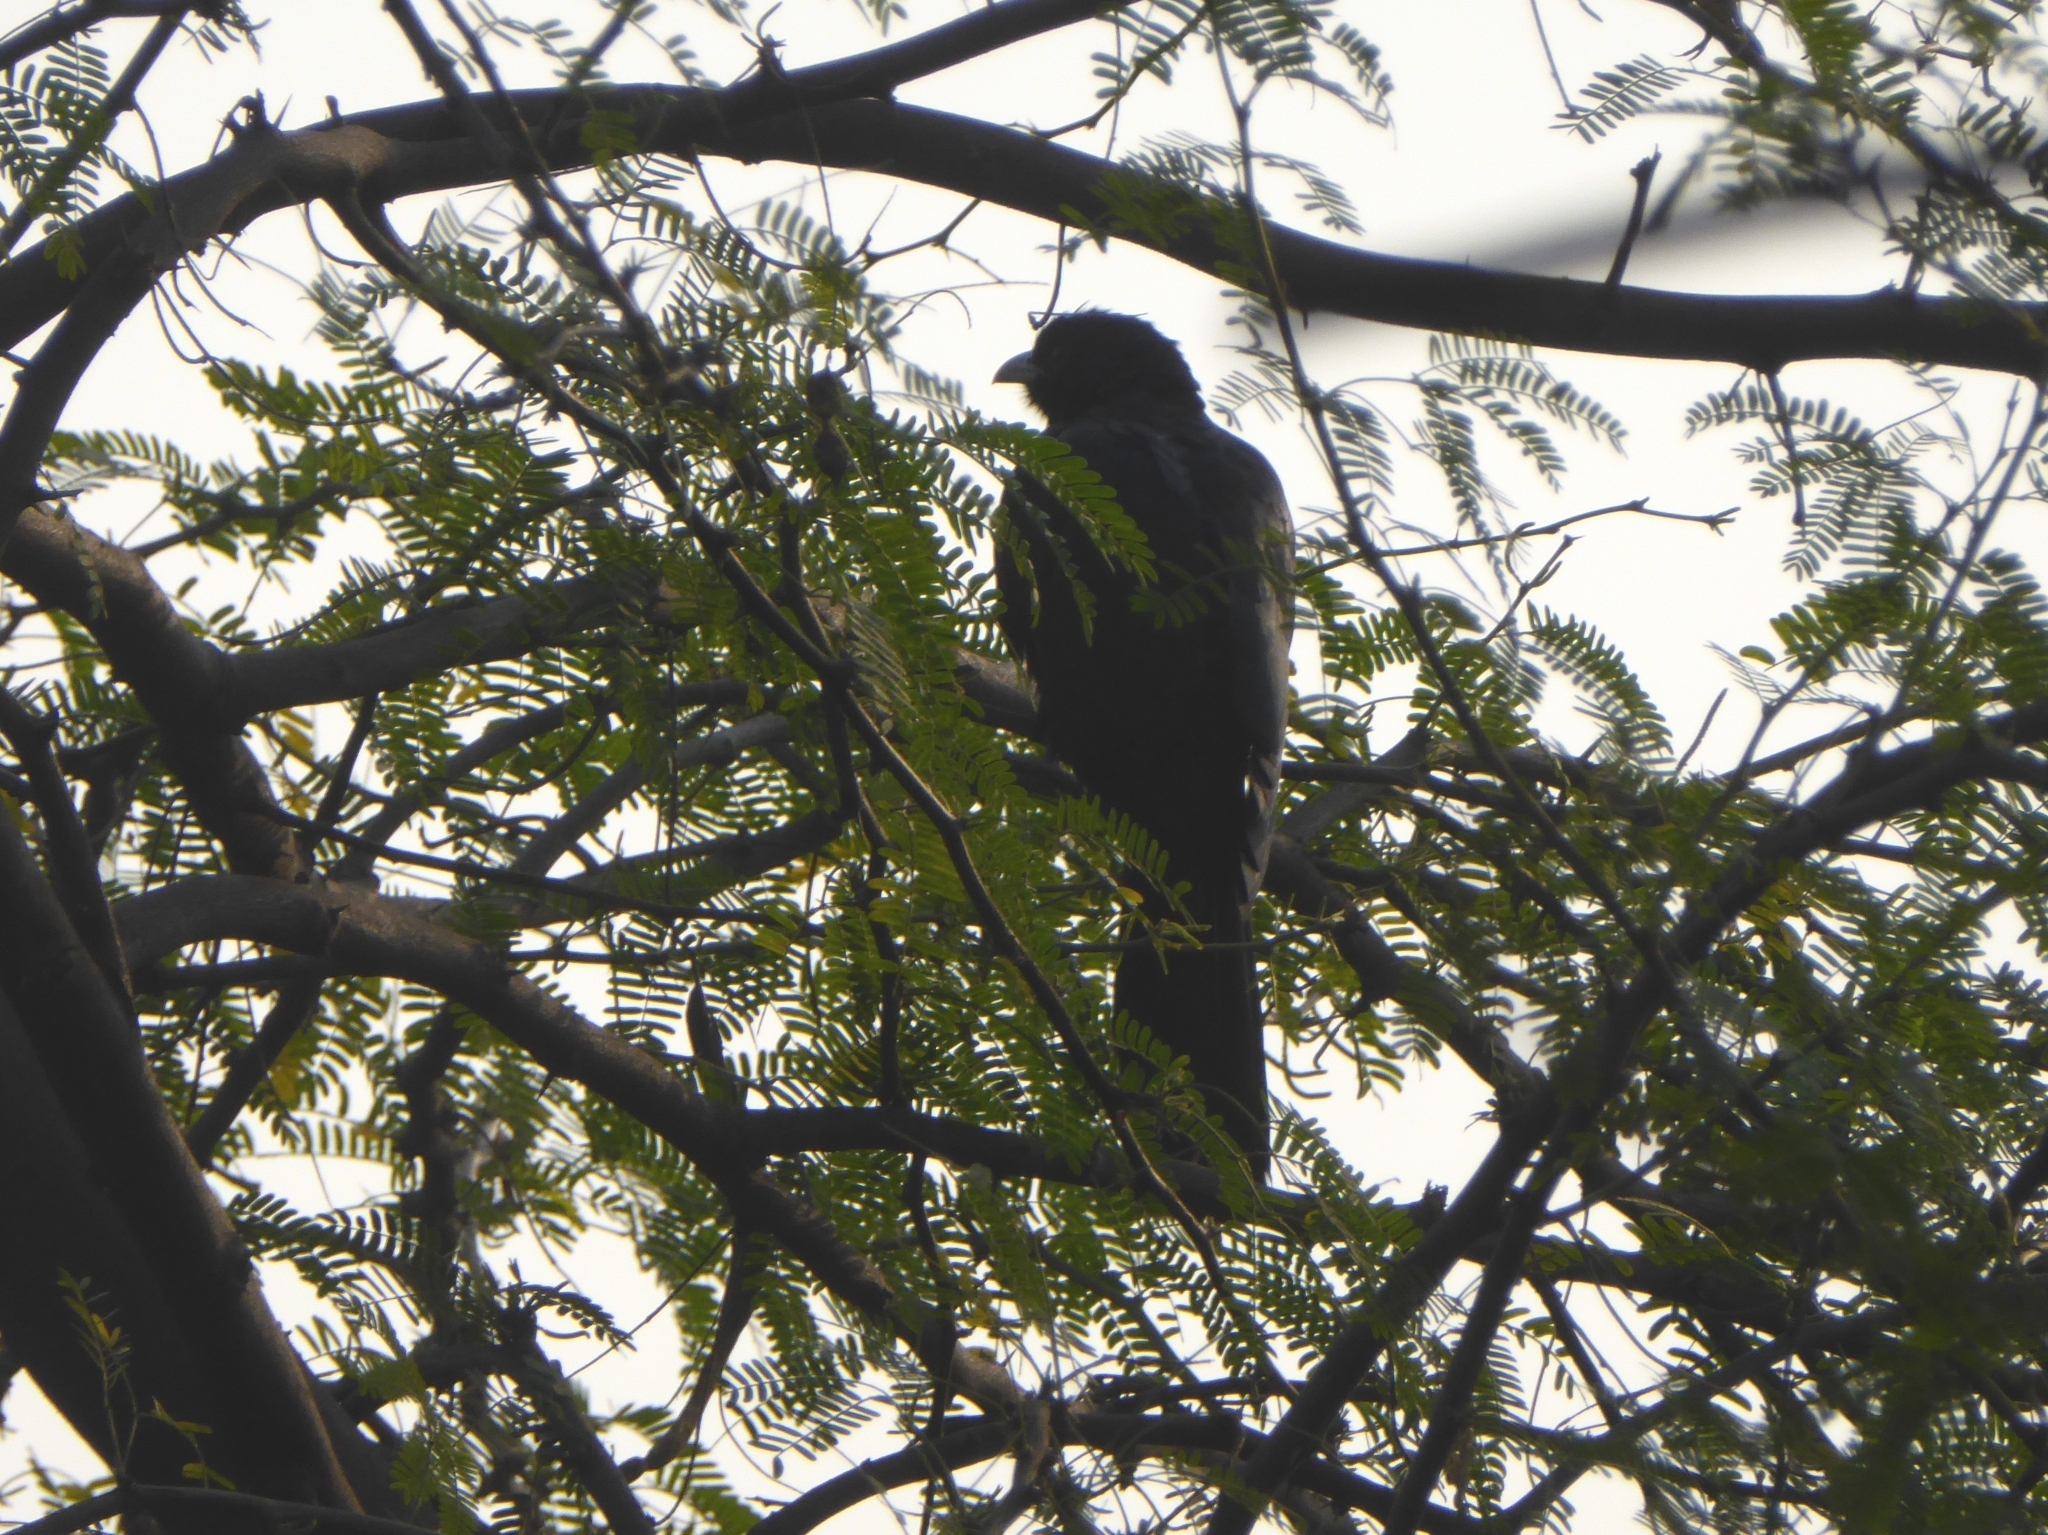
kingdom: Animalia
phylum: Chordata
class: Aves
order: Cuculiformes
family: Cuculidae
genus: Eudynamys
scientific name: Eudynamys scolopaceus
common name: Asian koel
